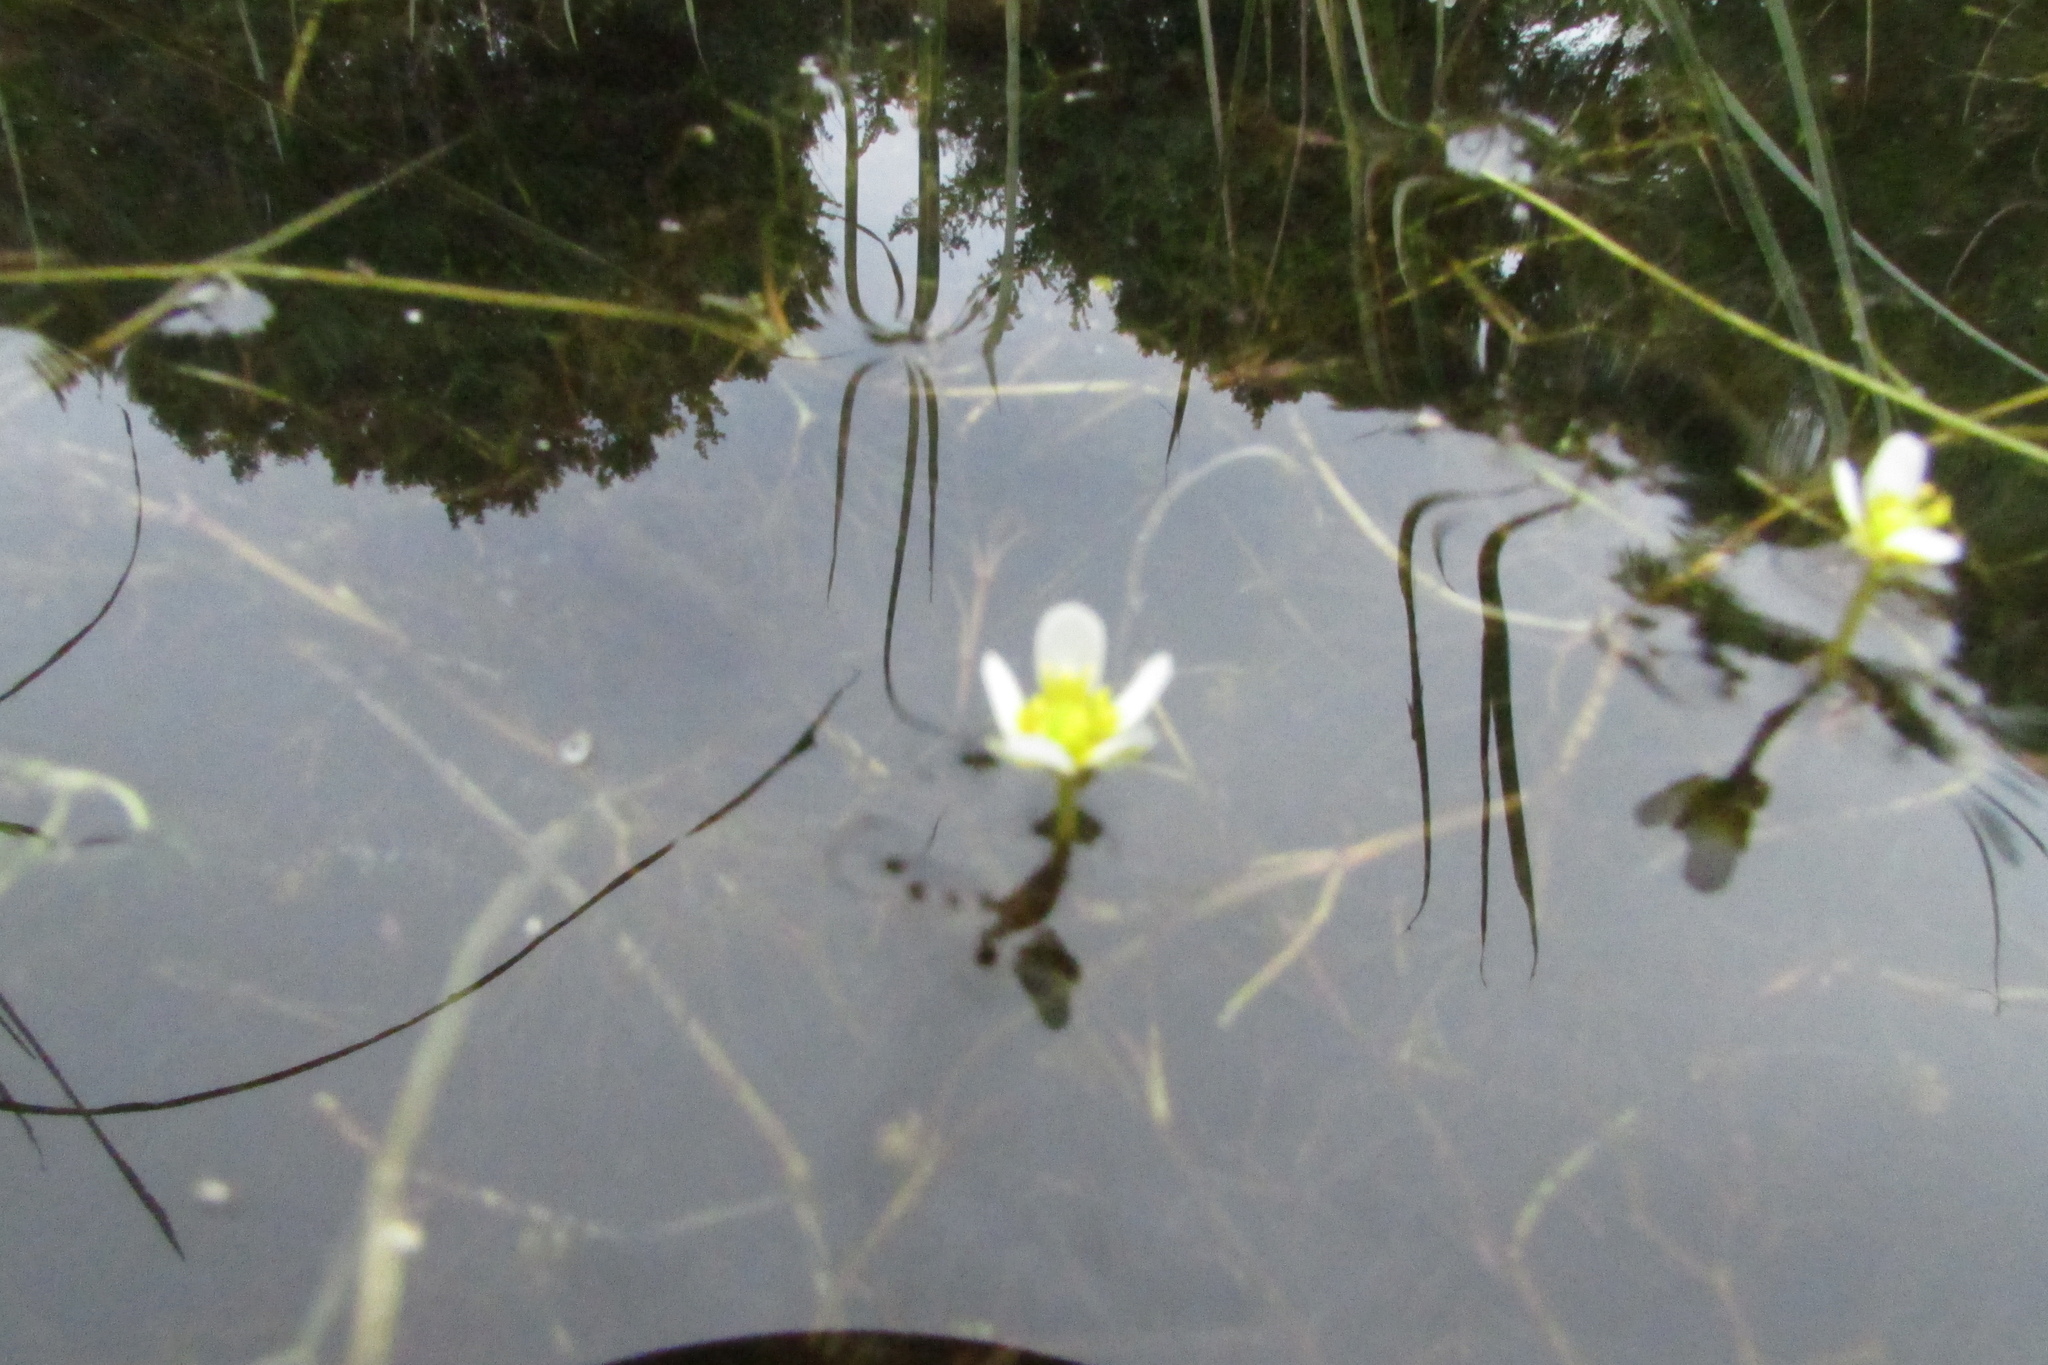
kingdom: Plantae
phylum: Tracheophyta
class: Magnoliopsida
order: Ranunculales
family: Ranunculaceae
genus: Ranunculus
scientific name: Ranunculus trichophyllus
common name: Thread-leaved water-crowfoot
